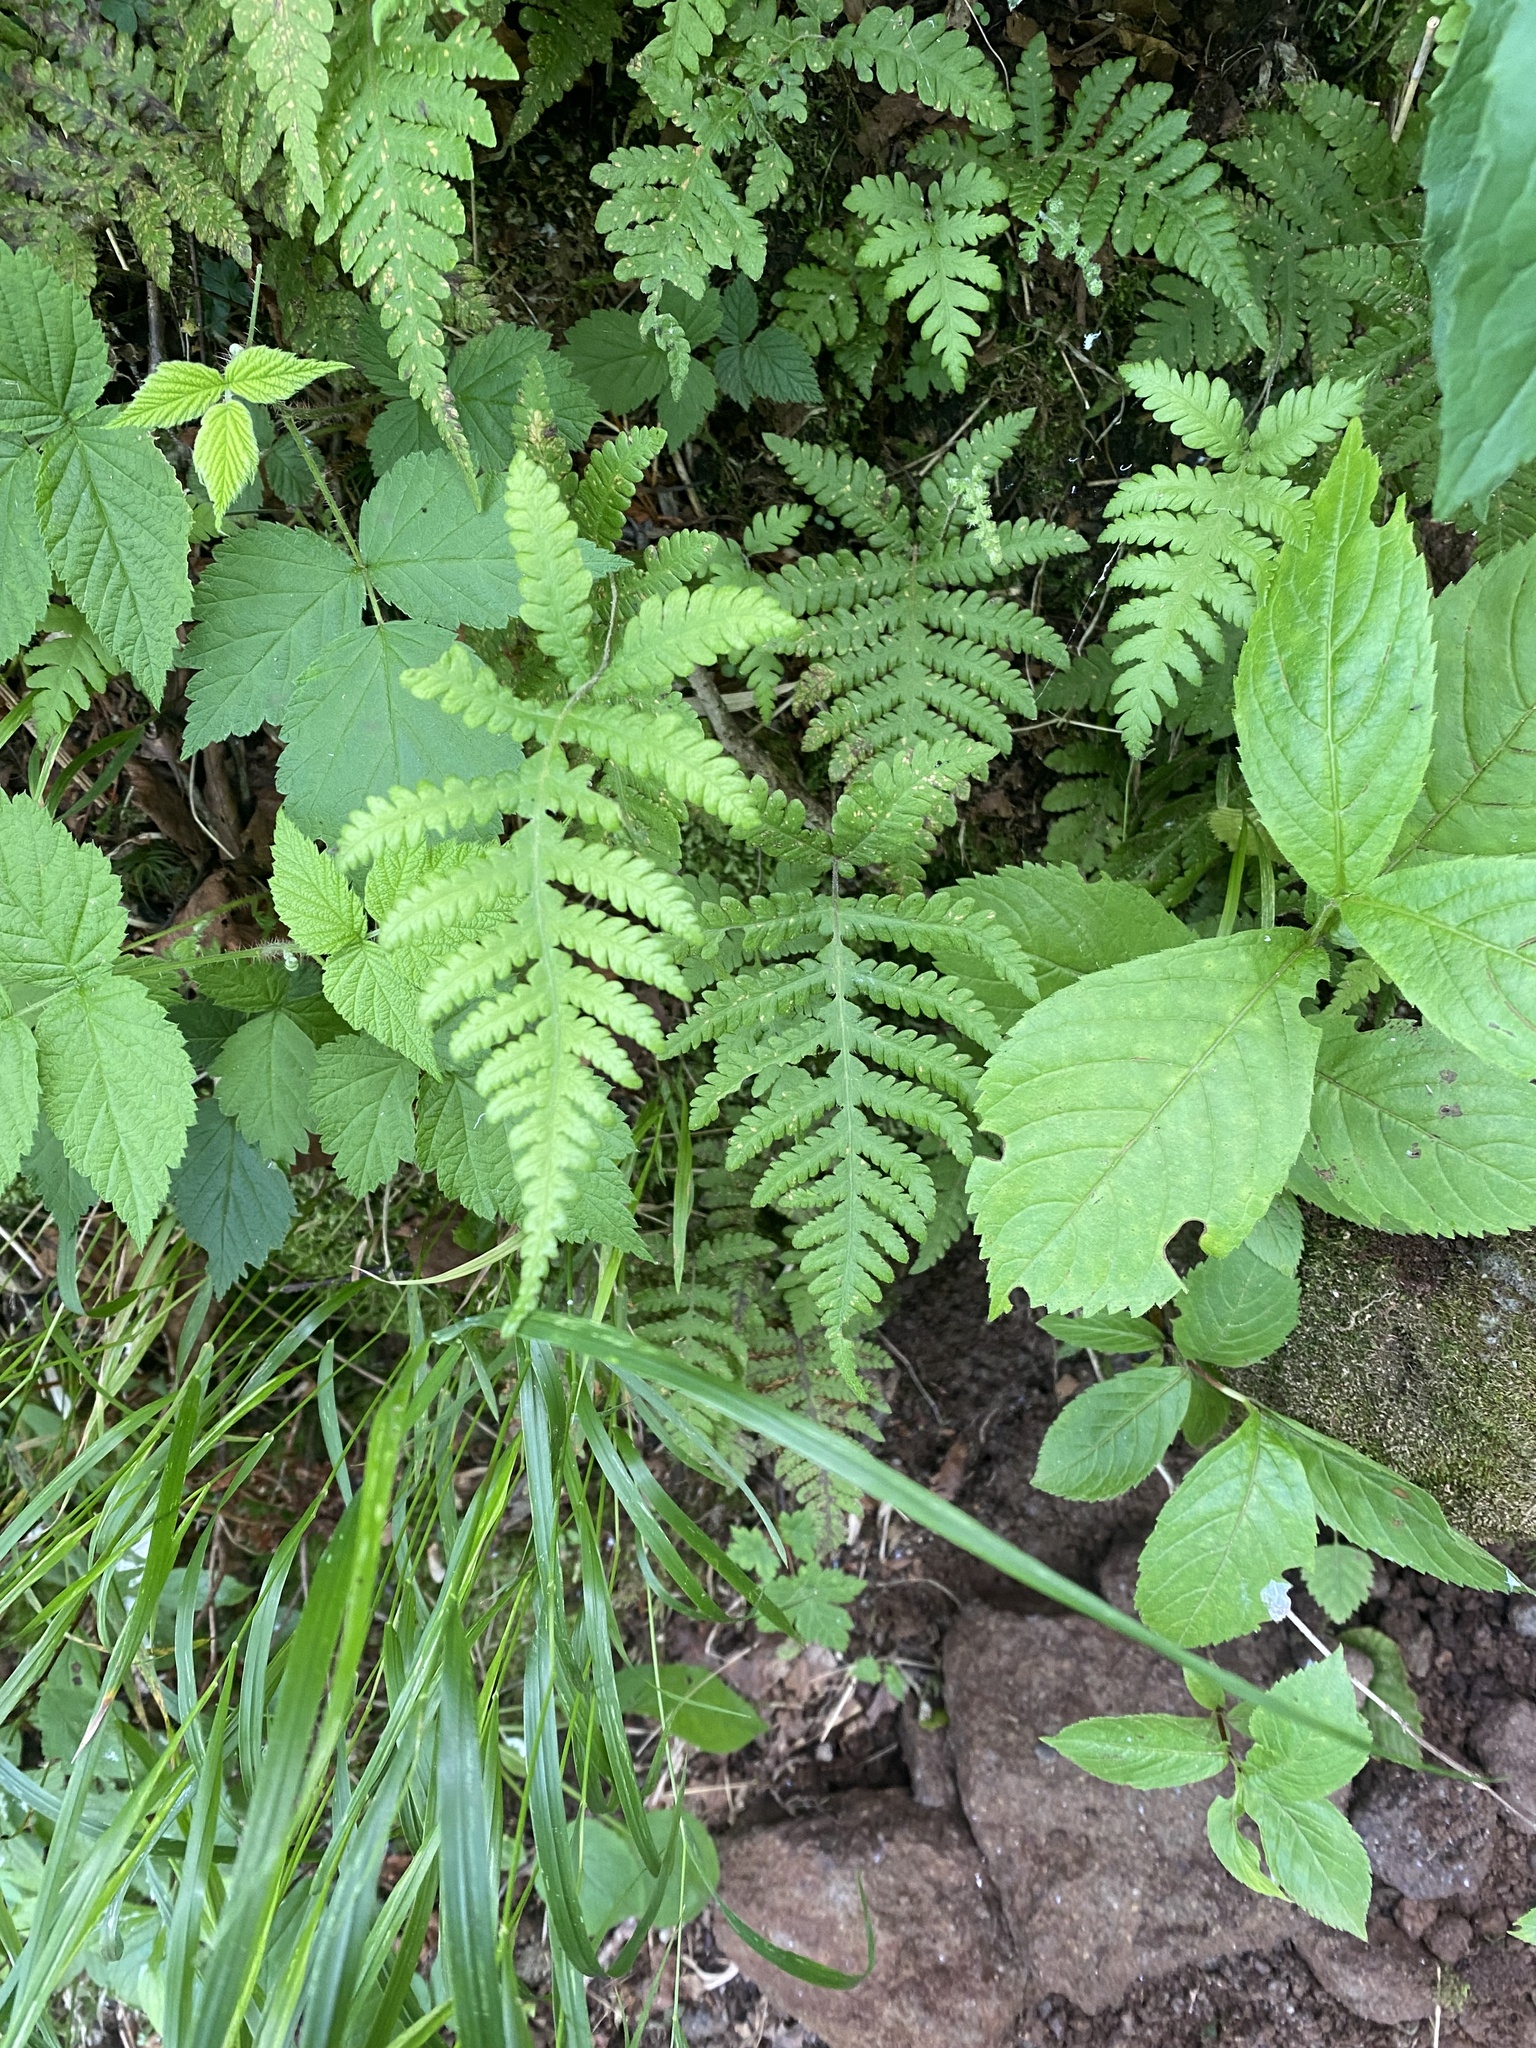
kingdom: Plantae
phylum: Tracheophyta
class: Polypodiopsida
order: Polypodiales
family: Thelypteridaceae
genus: Phegopteris
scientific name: Phegopteris connectilis
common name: Beech fern
